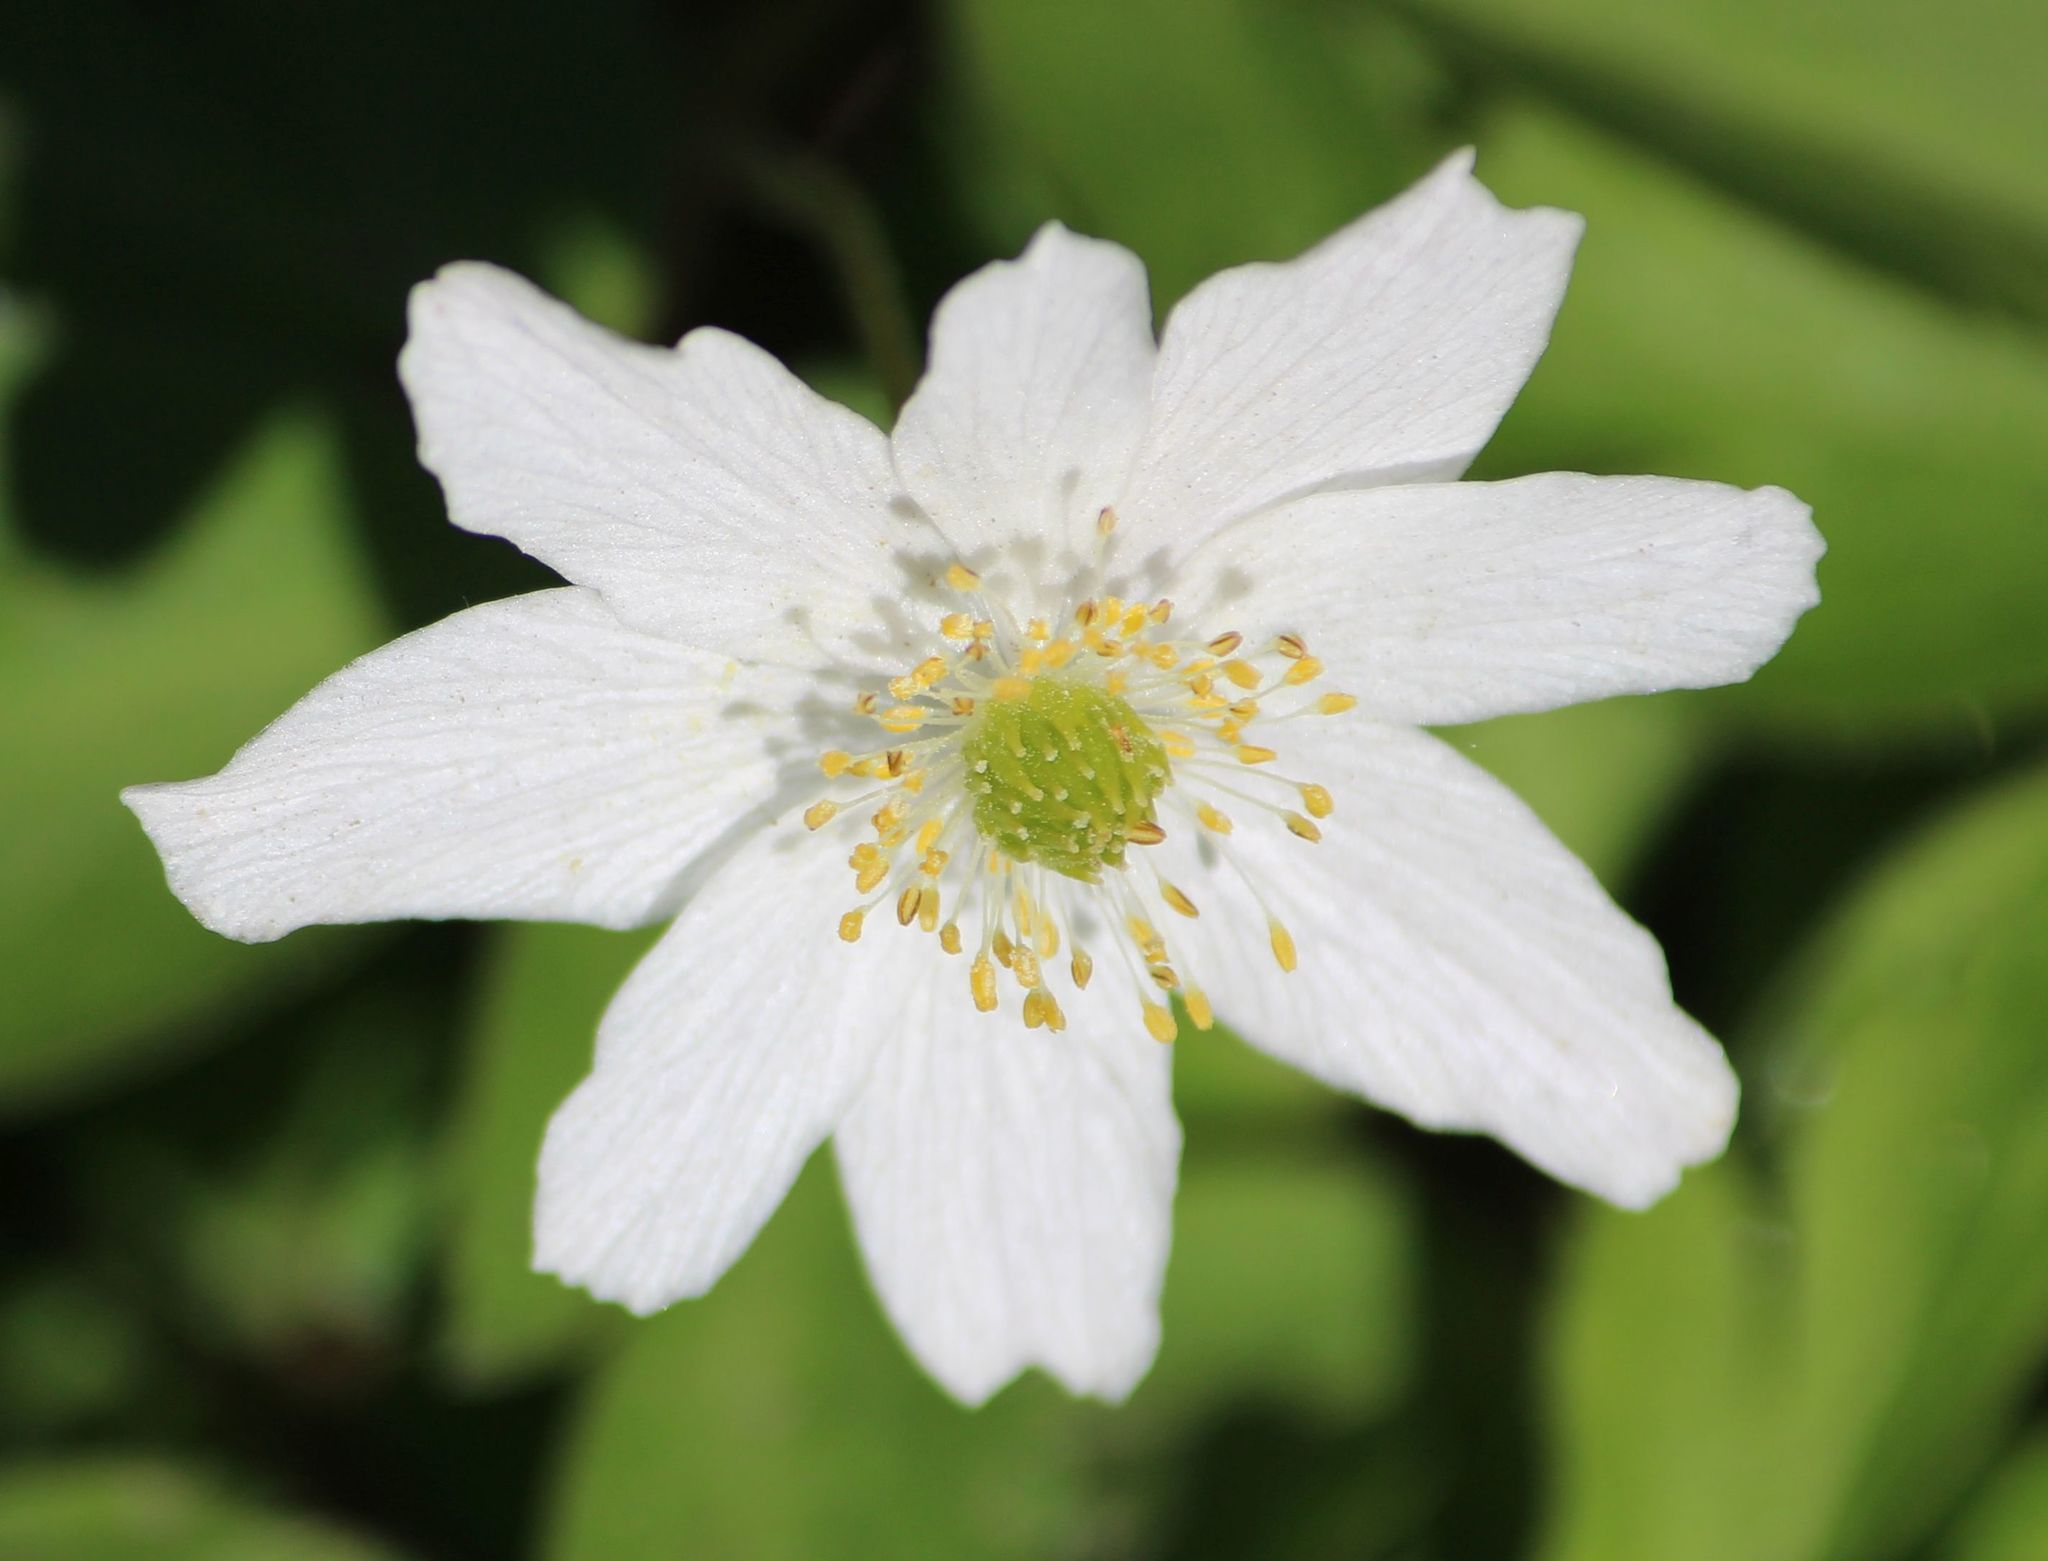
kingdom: Plantae
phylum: Tracheophyta
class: Magnoliopsida
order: Ranunculales
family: Ranunculaceae
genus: Anemone
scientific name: Anemone nemorosa
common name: Wood anemone
